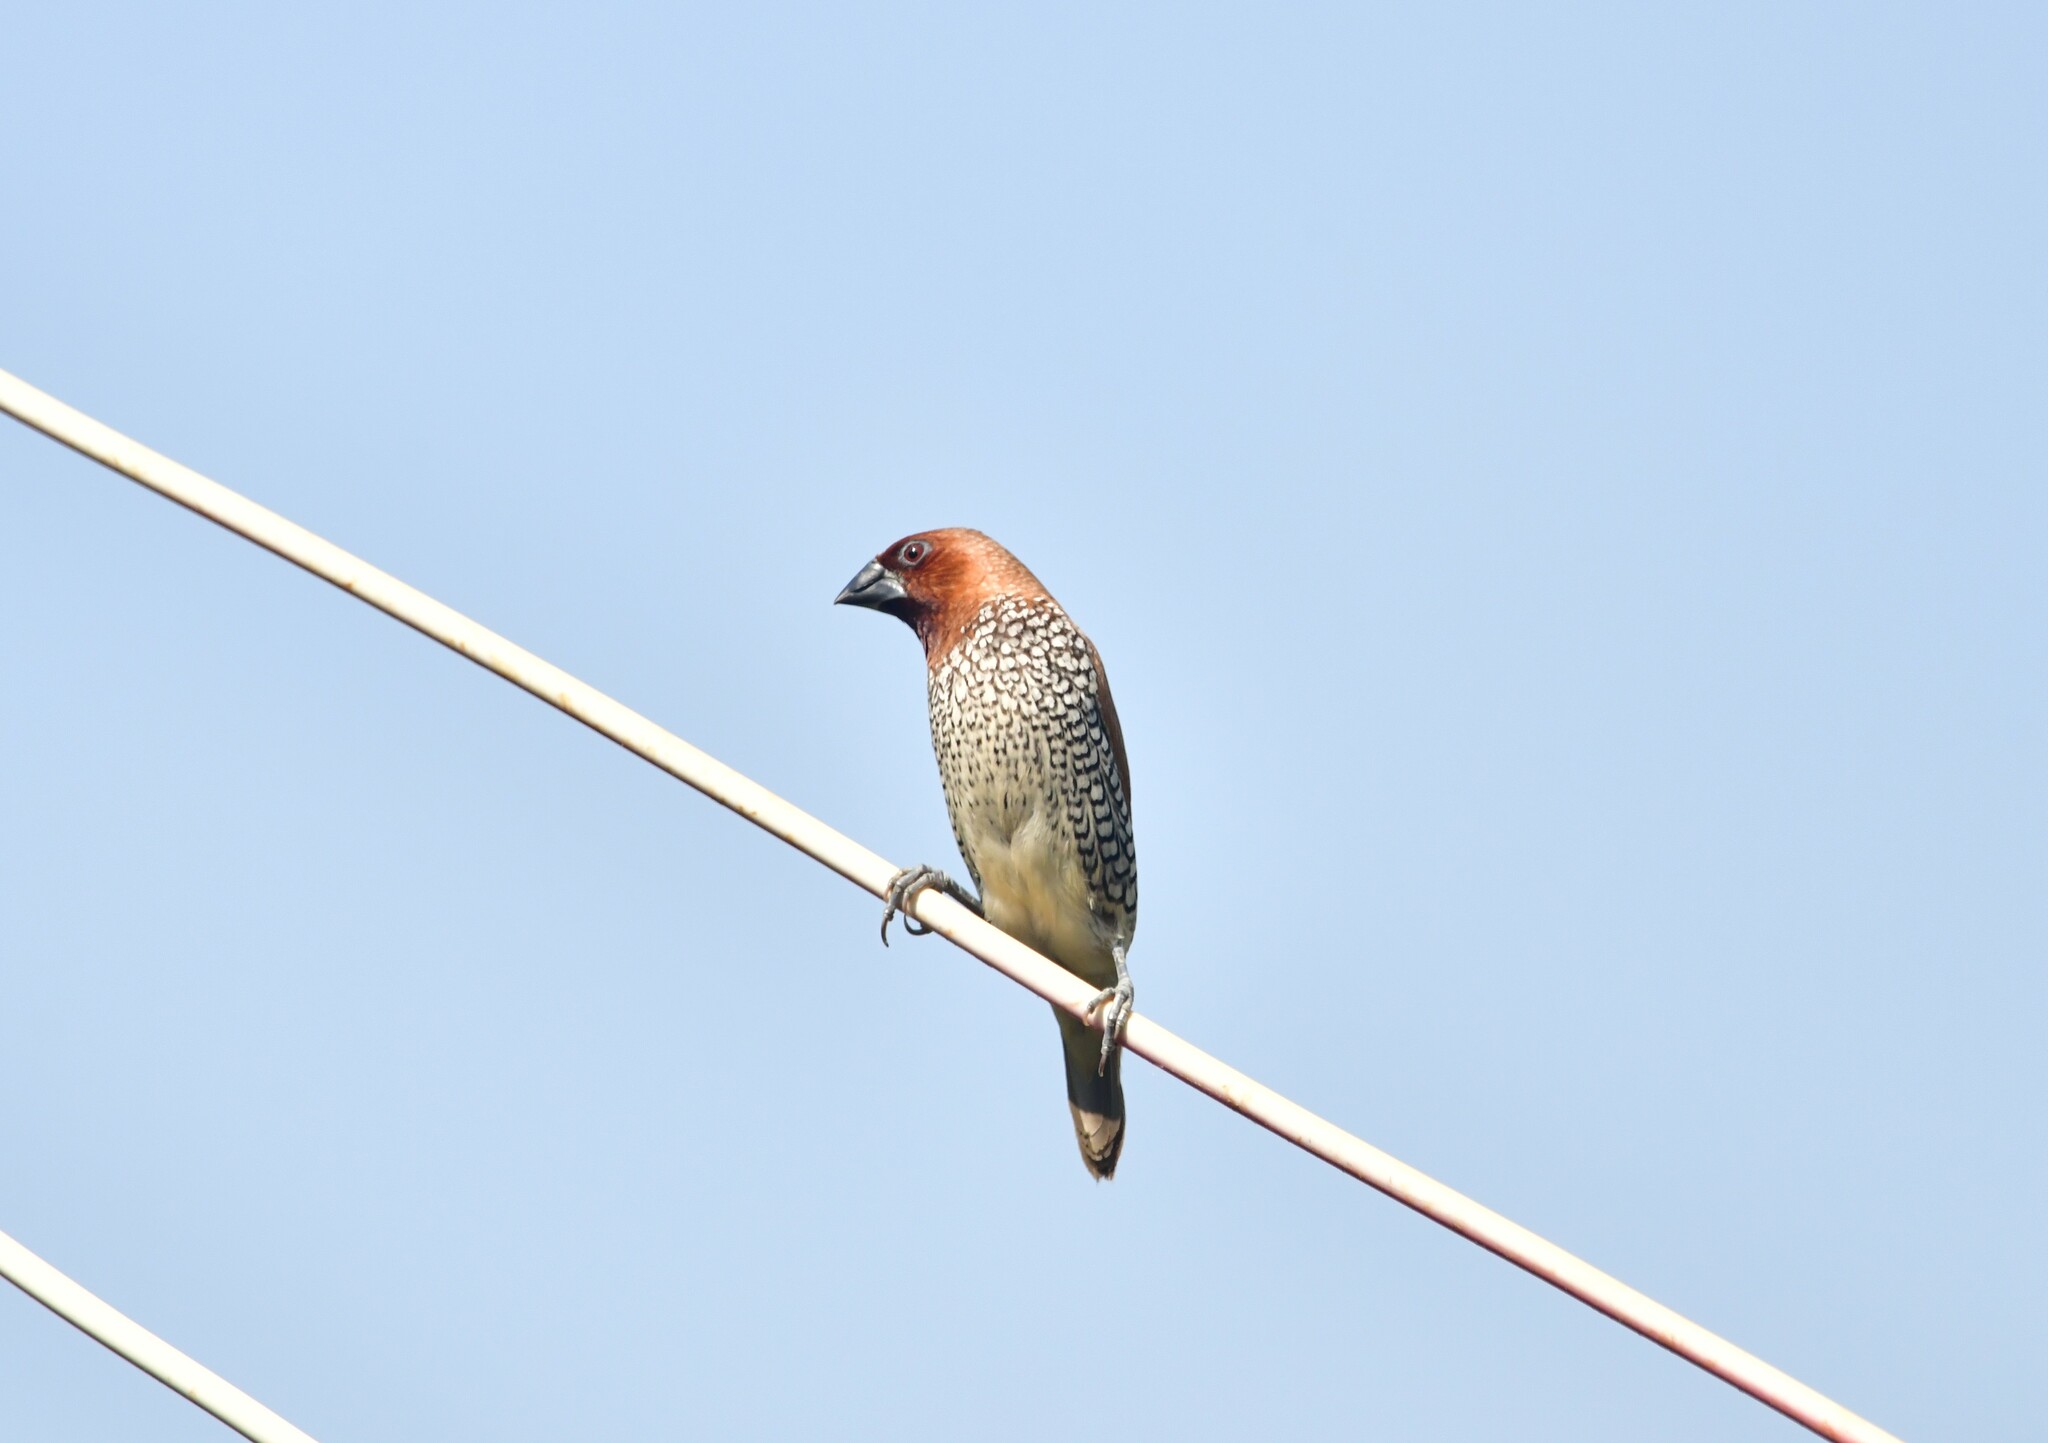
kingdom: Animalia
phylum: Chordata
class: Aves
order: Passeriformes
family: Estrildidae
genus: Lonchura
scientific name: Lonchura punctulata
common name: Scaly-breasted munia
